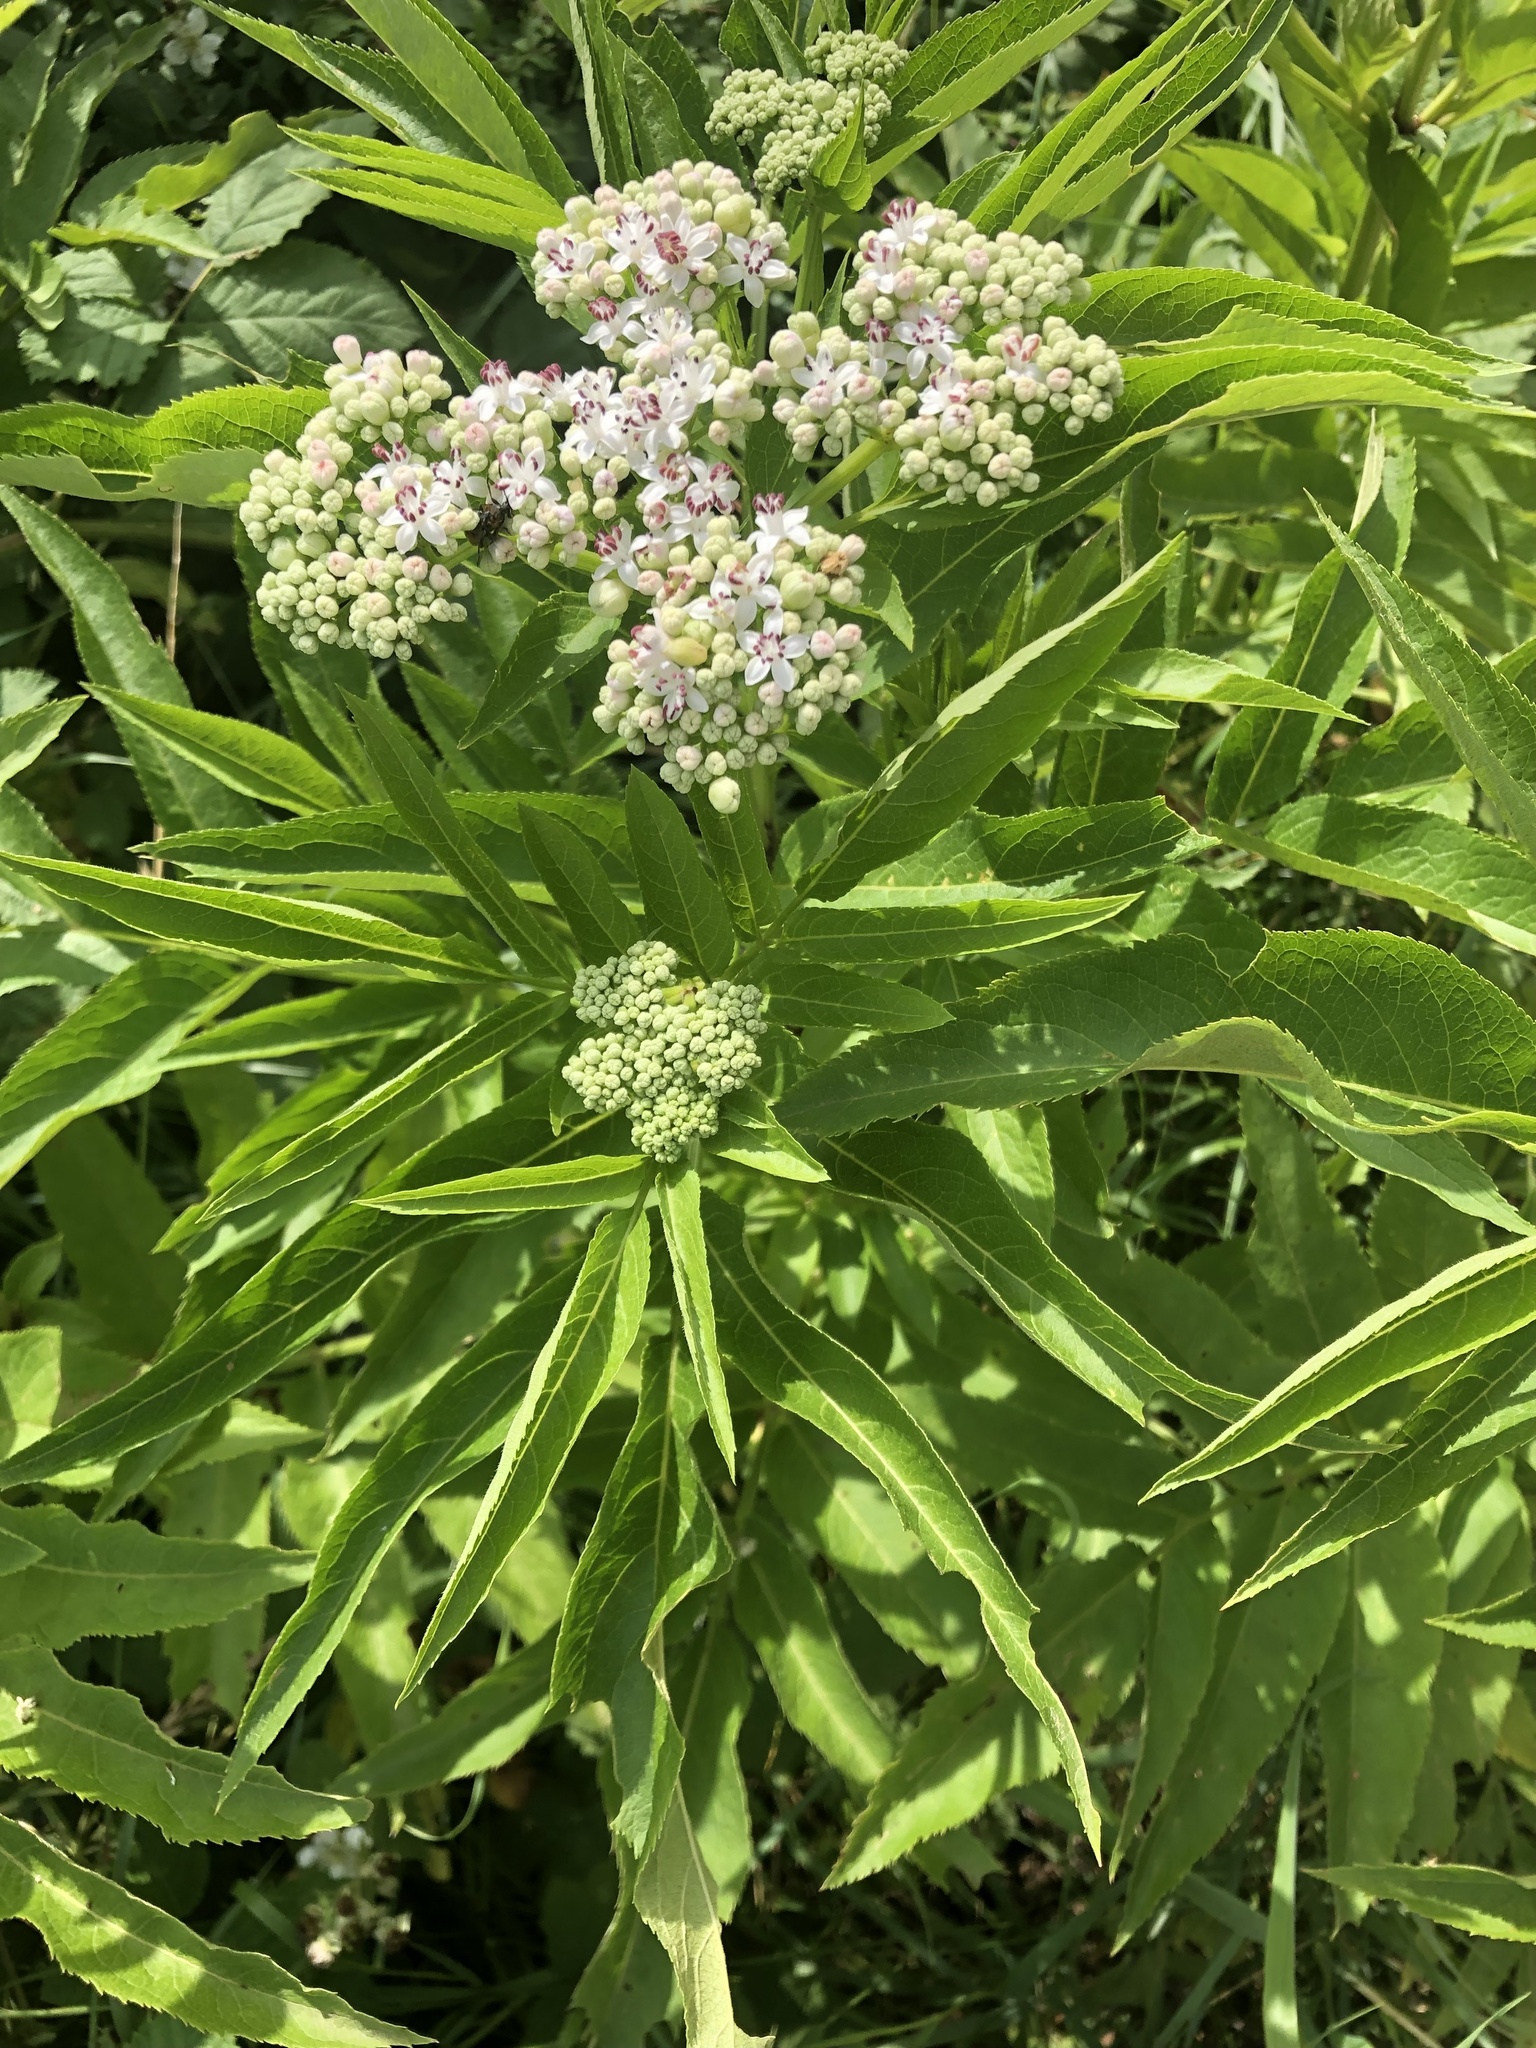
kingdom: Plantae
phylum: Tracheophyta
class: Magnoliopsida
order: Dipsacales
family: Viburnaceae
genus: Sambucus
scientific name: Sambucus ebulus
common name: Dwarf elder
